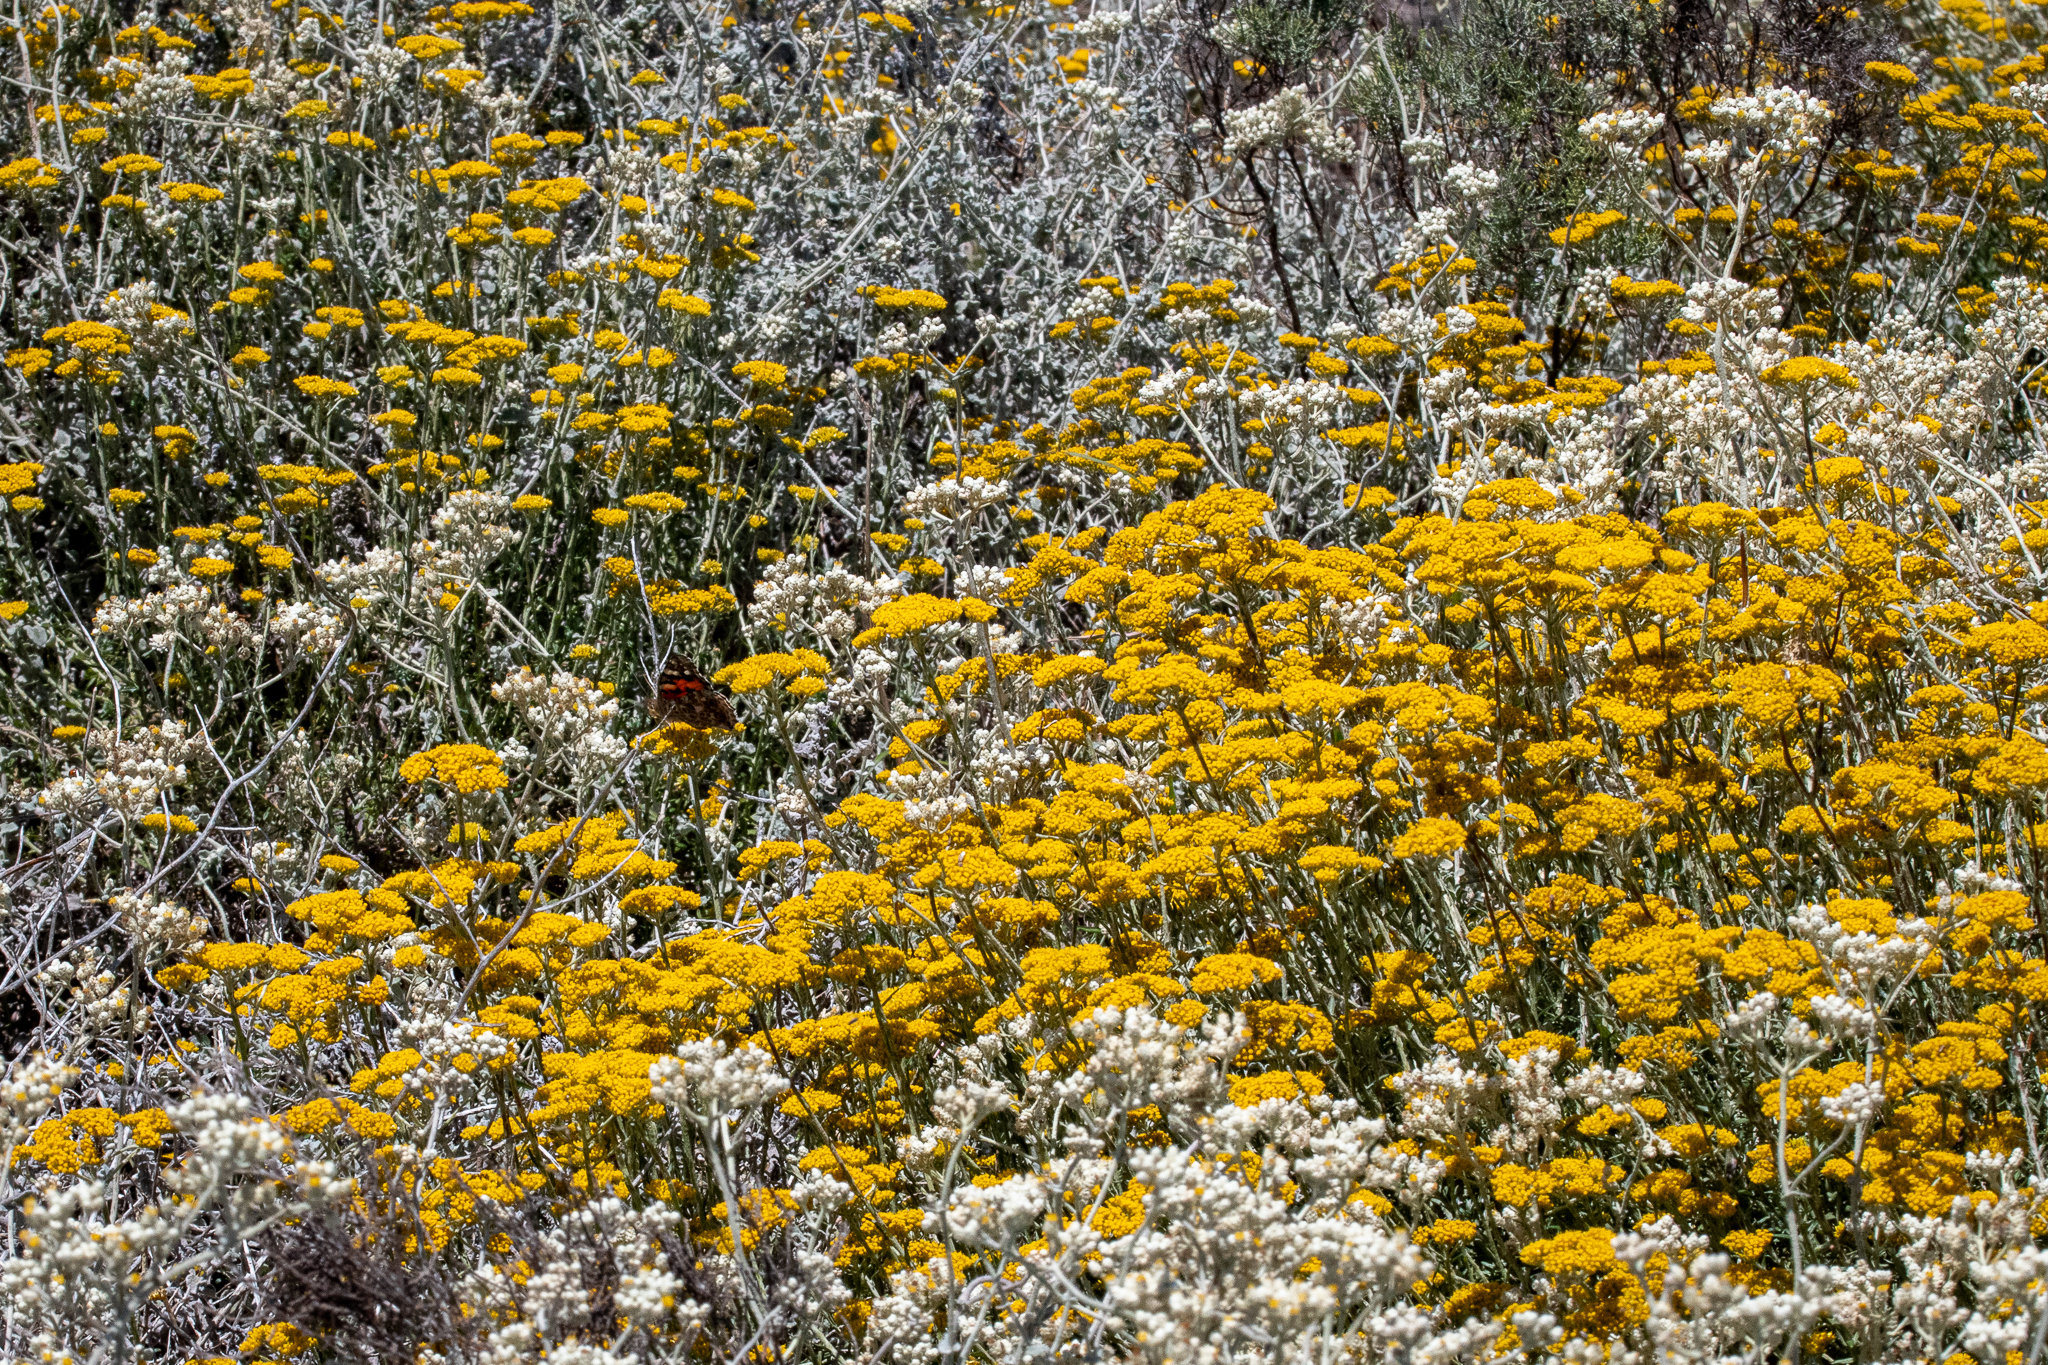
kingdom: Plantae
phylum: Tracheophyta
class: Magnoliopsida
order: Asterales
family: Asteraceae
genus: Helichrysum
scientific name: Helichrysum cymosum
